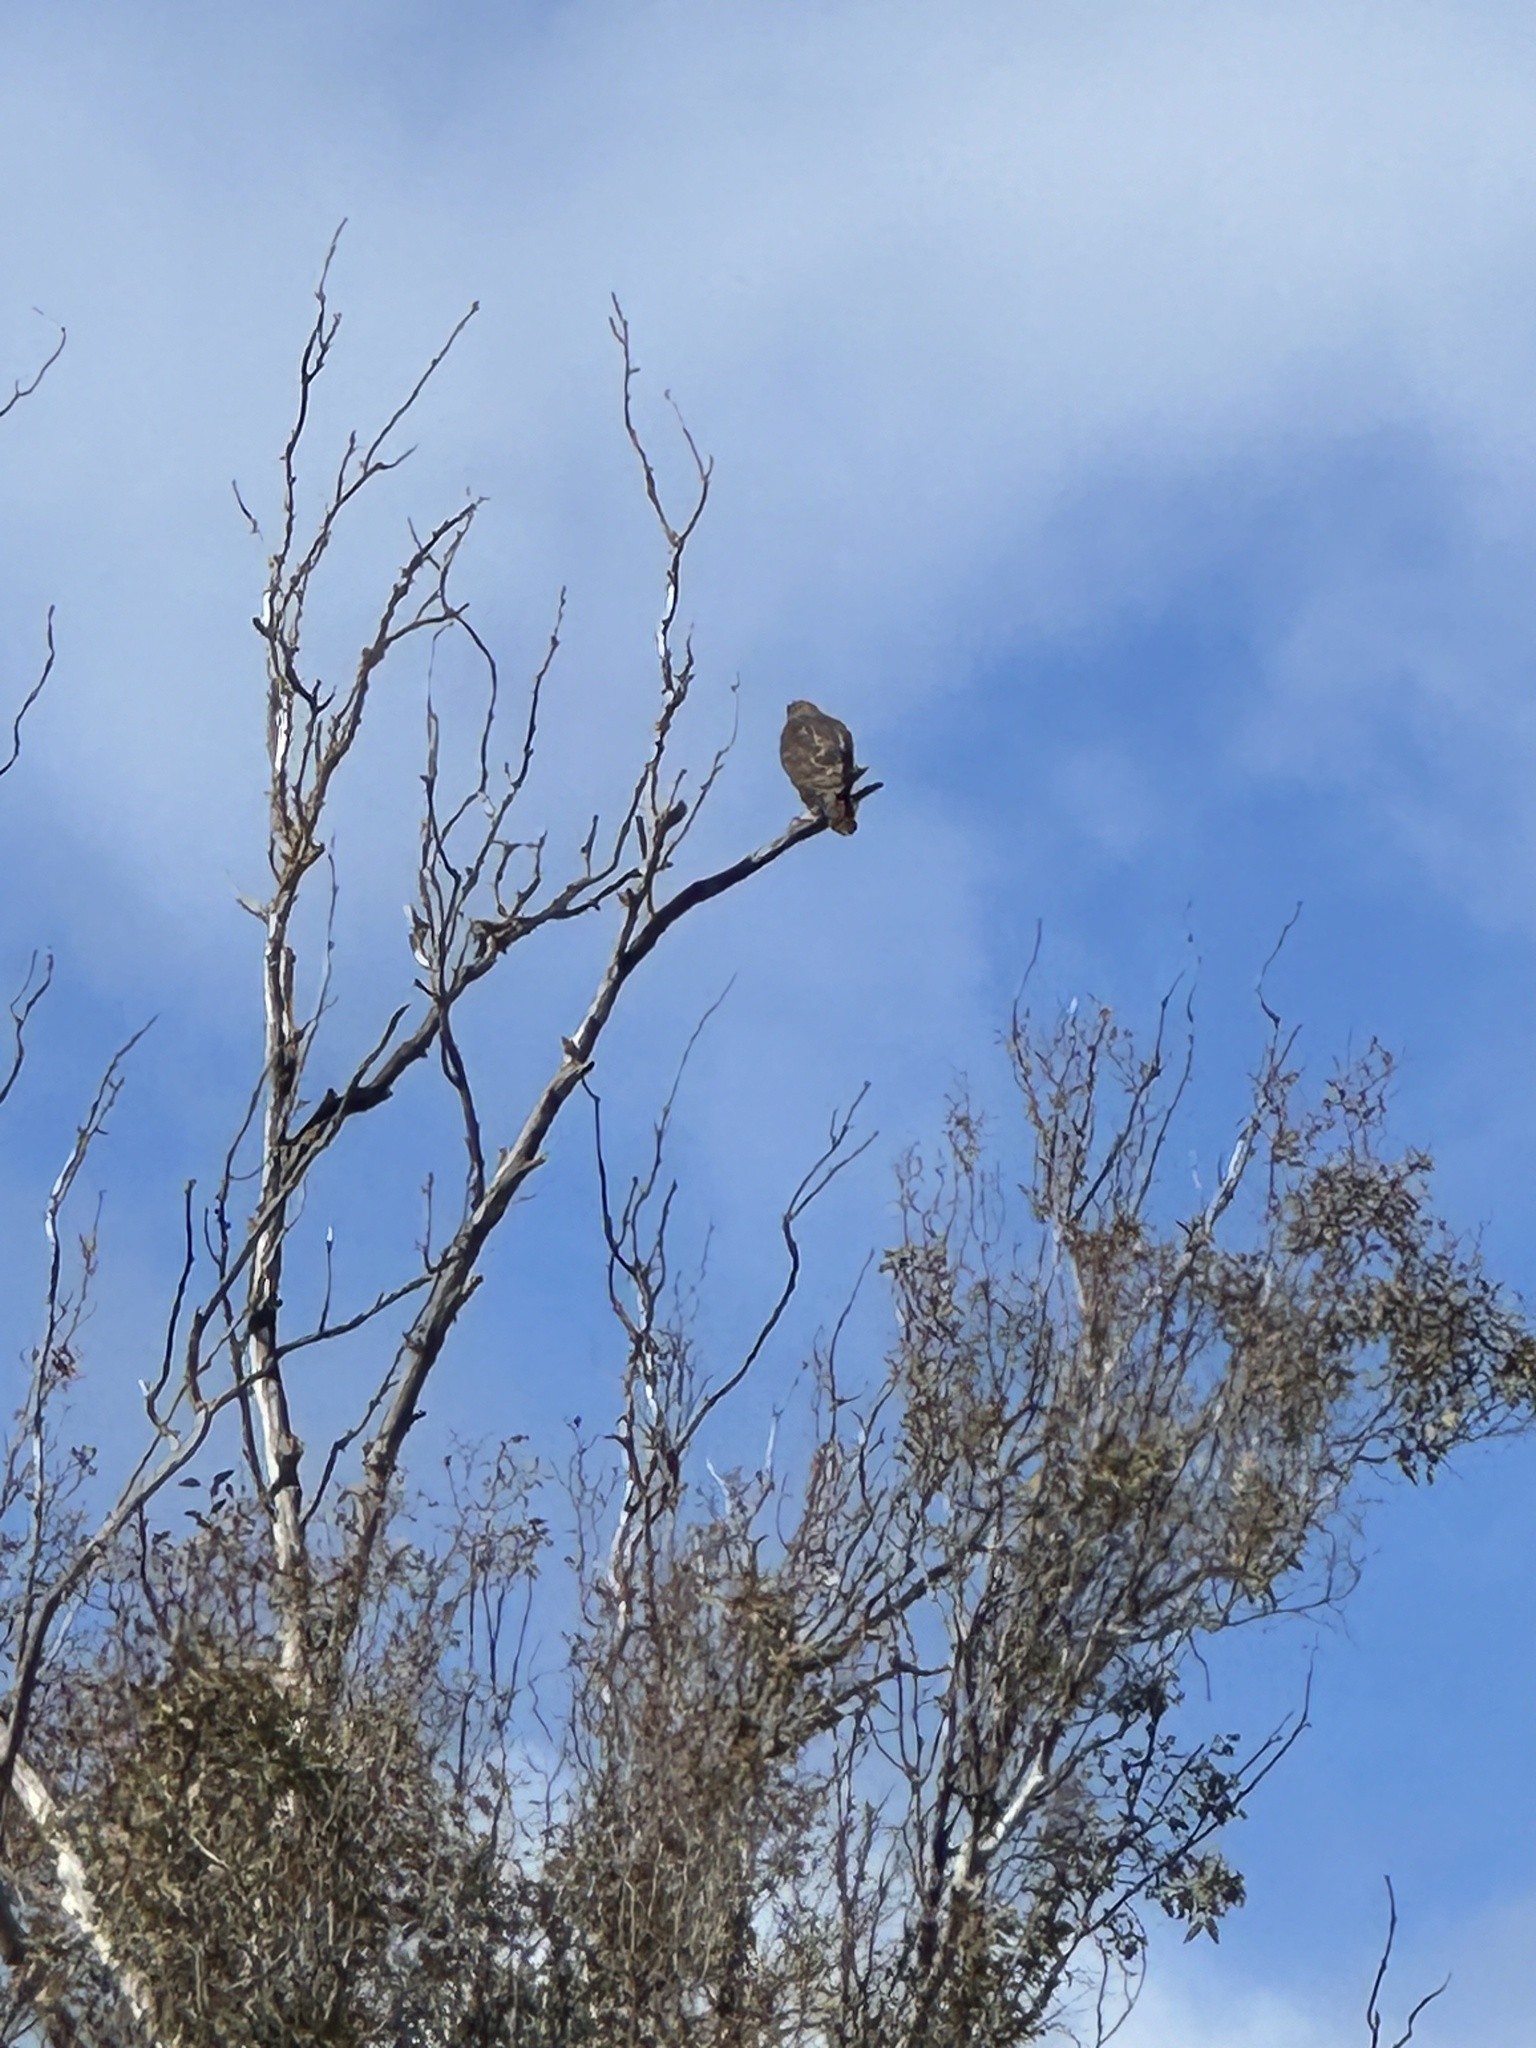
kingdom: Animalia
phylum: Chordata
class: Aves
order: Accipitriformes
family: Accipitridae
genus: Buteo
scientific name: Buteo jamaicensis
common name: Red-tailed hawk
